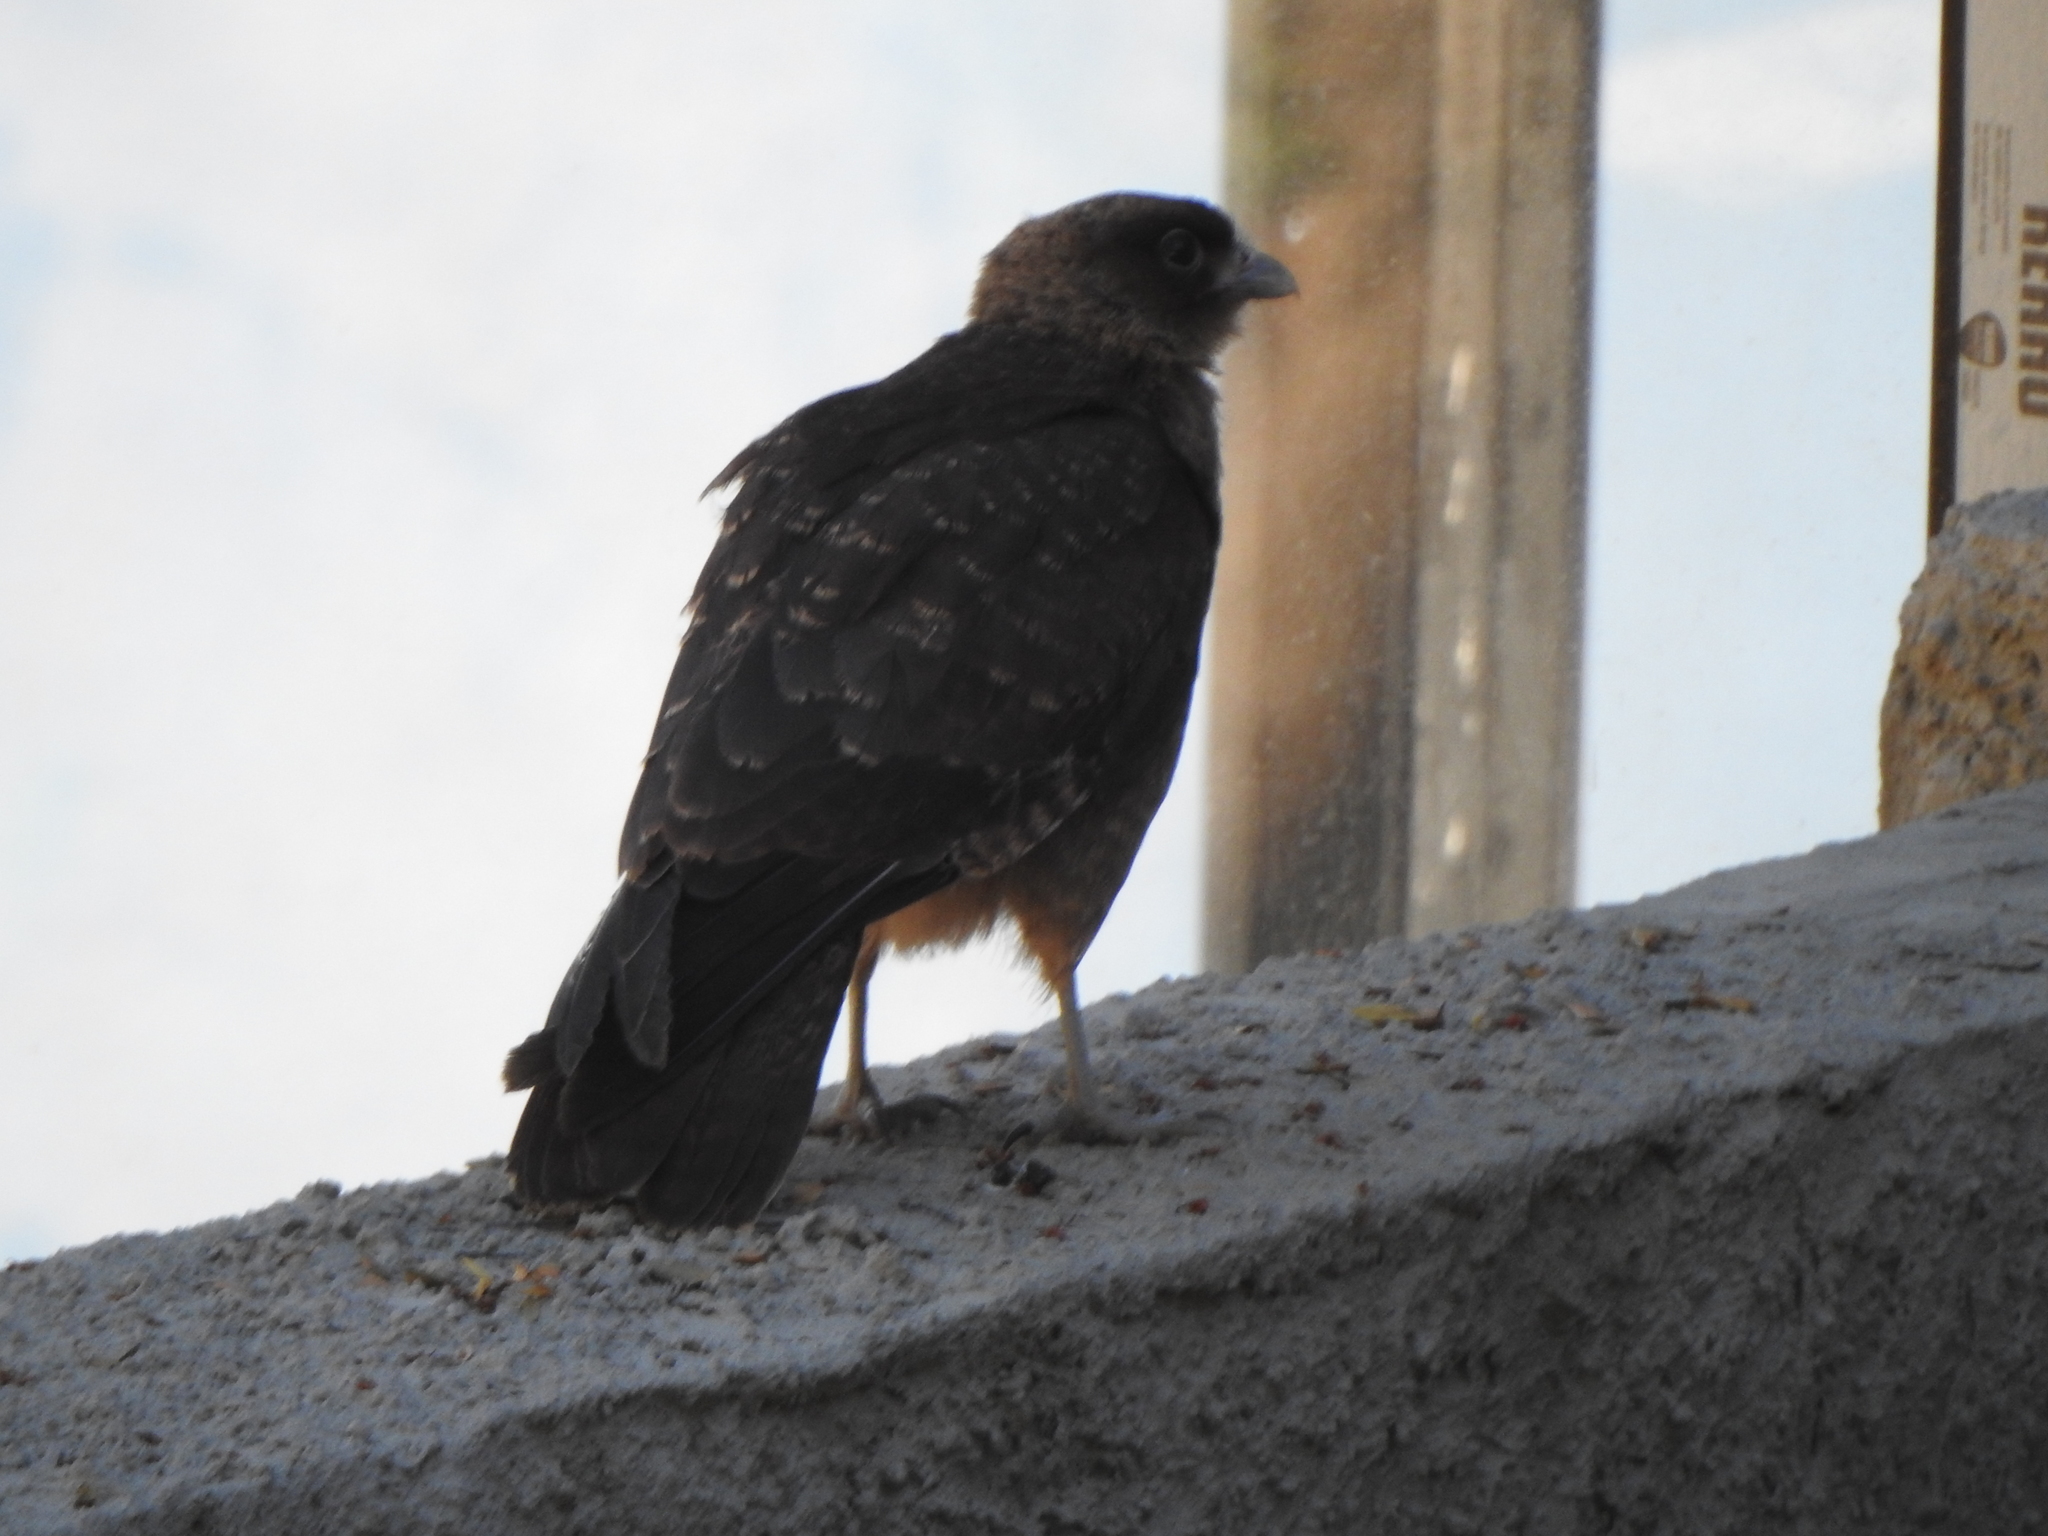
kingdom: Animalia
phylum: Chordata
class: Aves
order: Falconiformes
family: Falconidae
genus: Daptrius
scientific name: Daptrius
